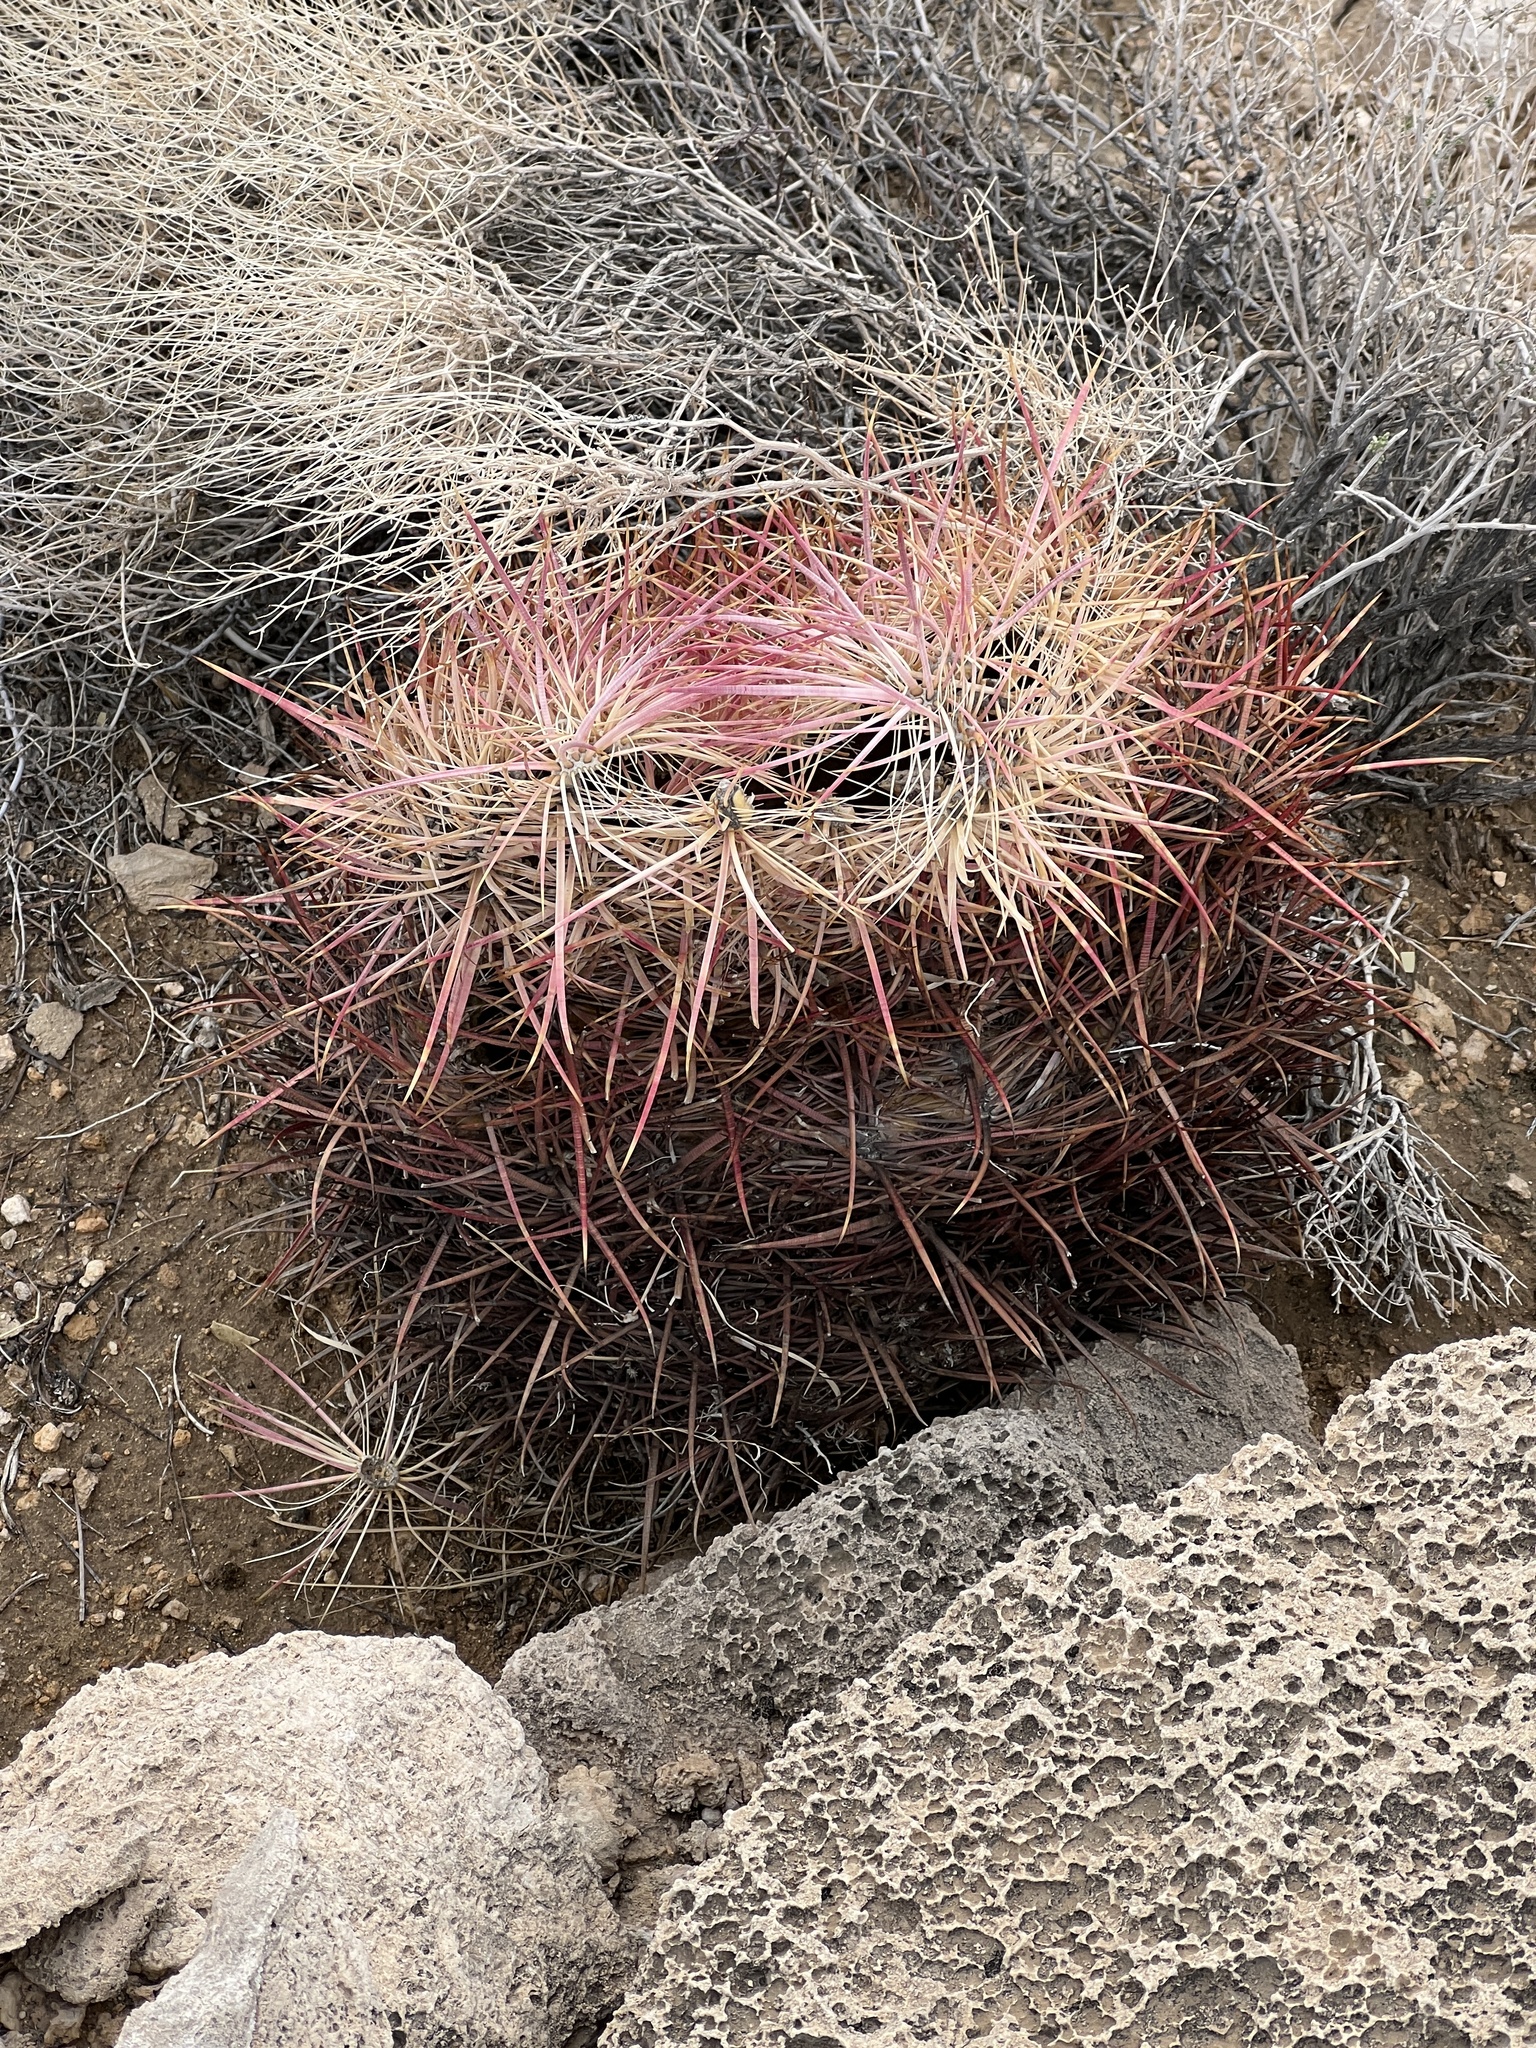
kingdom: Plantae
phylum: Tracheophyta
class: Magnoliopsida
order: Caryophyllales
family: Cactaceae
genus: Ferocactus
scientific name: Ferocactus cylindraceus
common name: California barrel cactus
